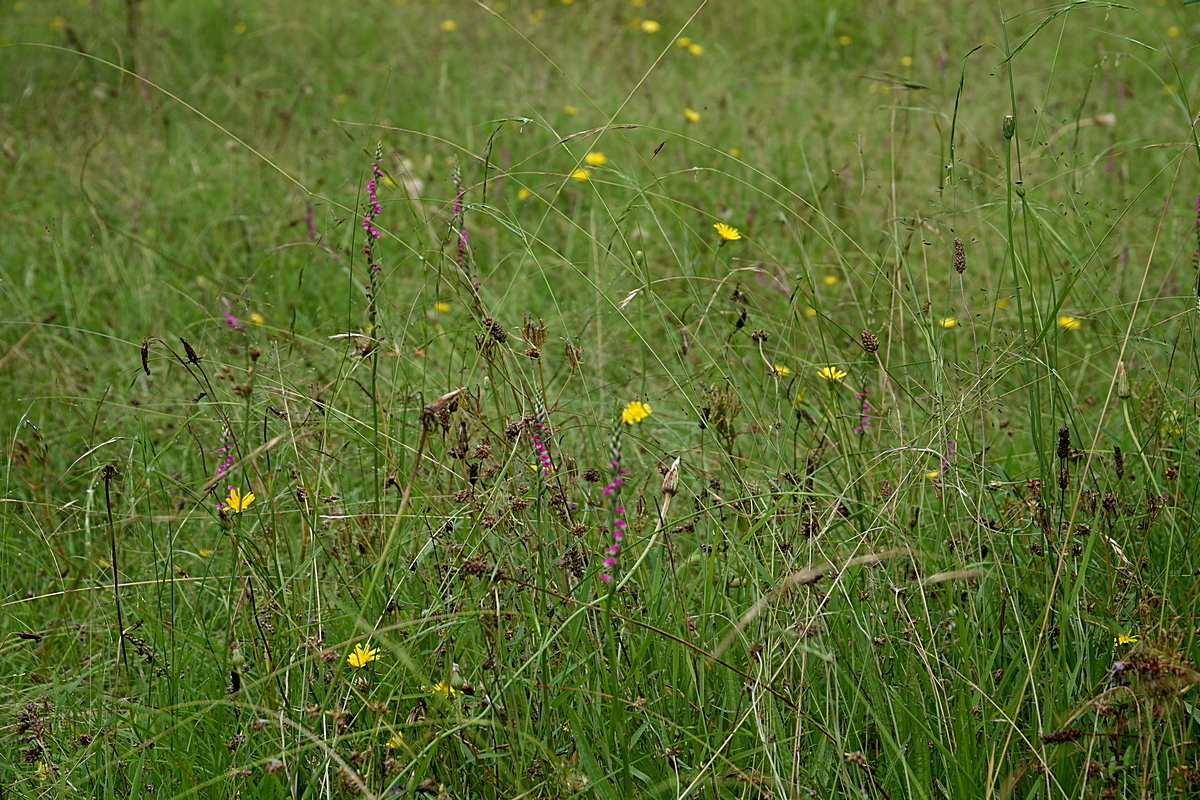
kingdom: Plantae
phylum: Tracheophyta
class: Liliopsida
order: Asparagales
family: Orchidaceae
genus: Spiranthes
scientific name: Spiranthes australis
